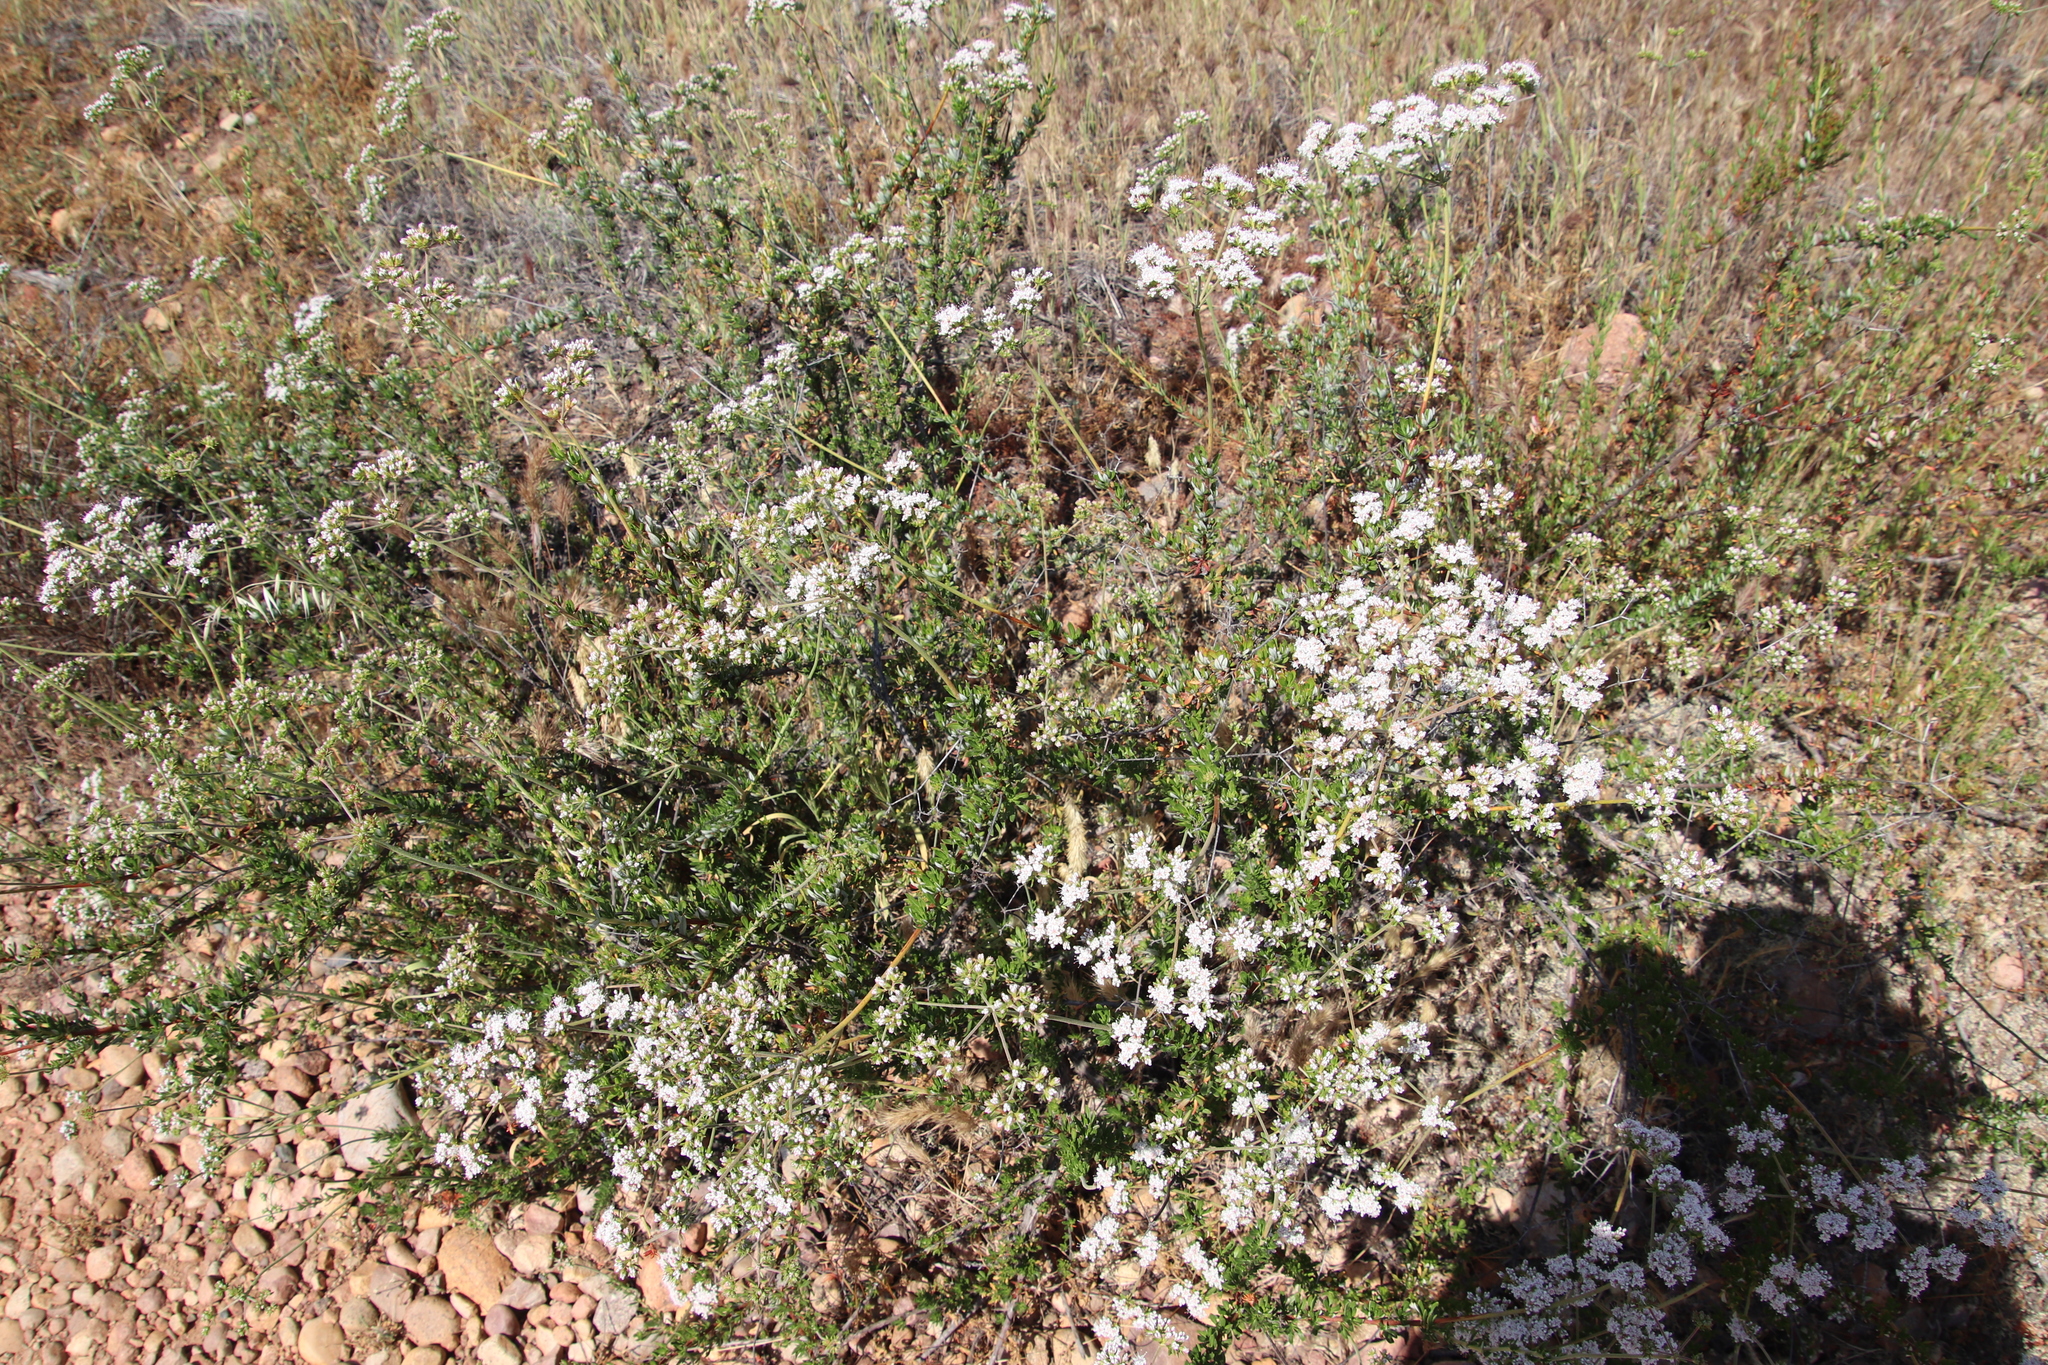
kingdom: Plantae
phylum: Tracheophyta
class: Magnoliopsida
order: Caryophyllales
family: Polygonaceae
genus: Eriogonum
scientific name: Eriogonum fasciculatum
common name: California wild buckwheat
